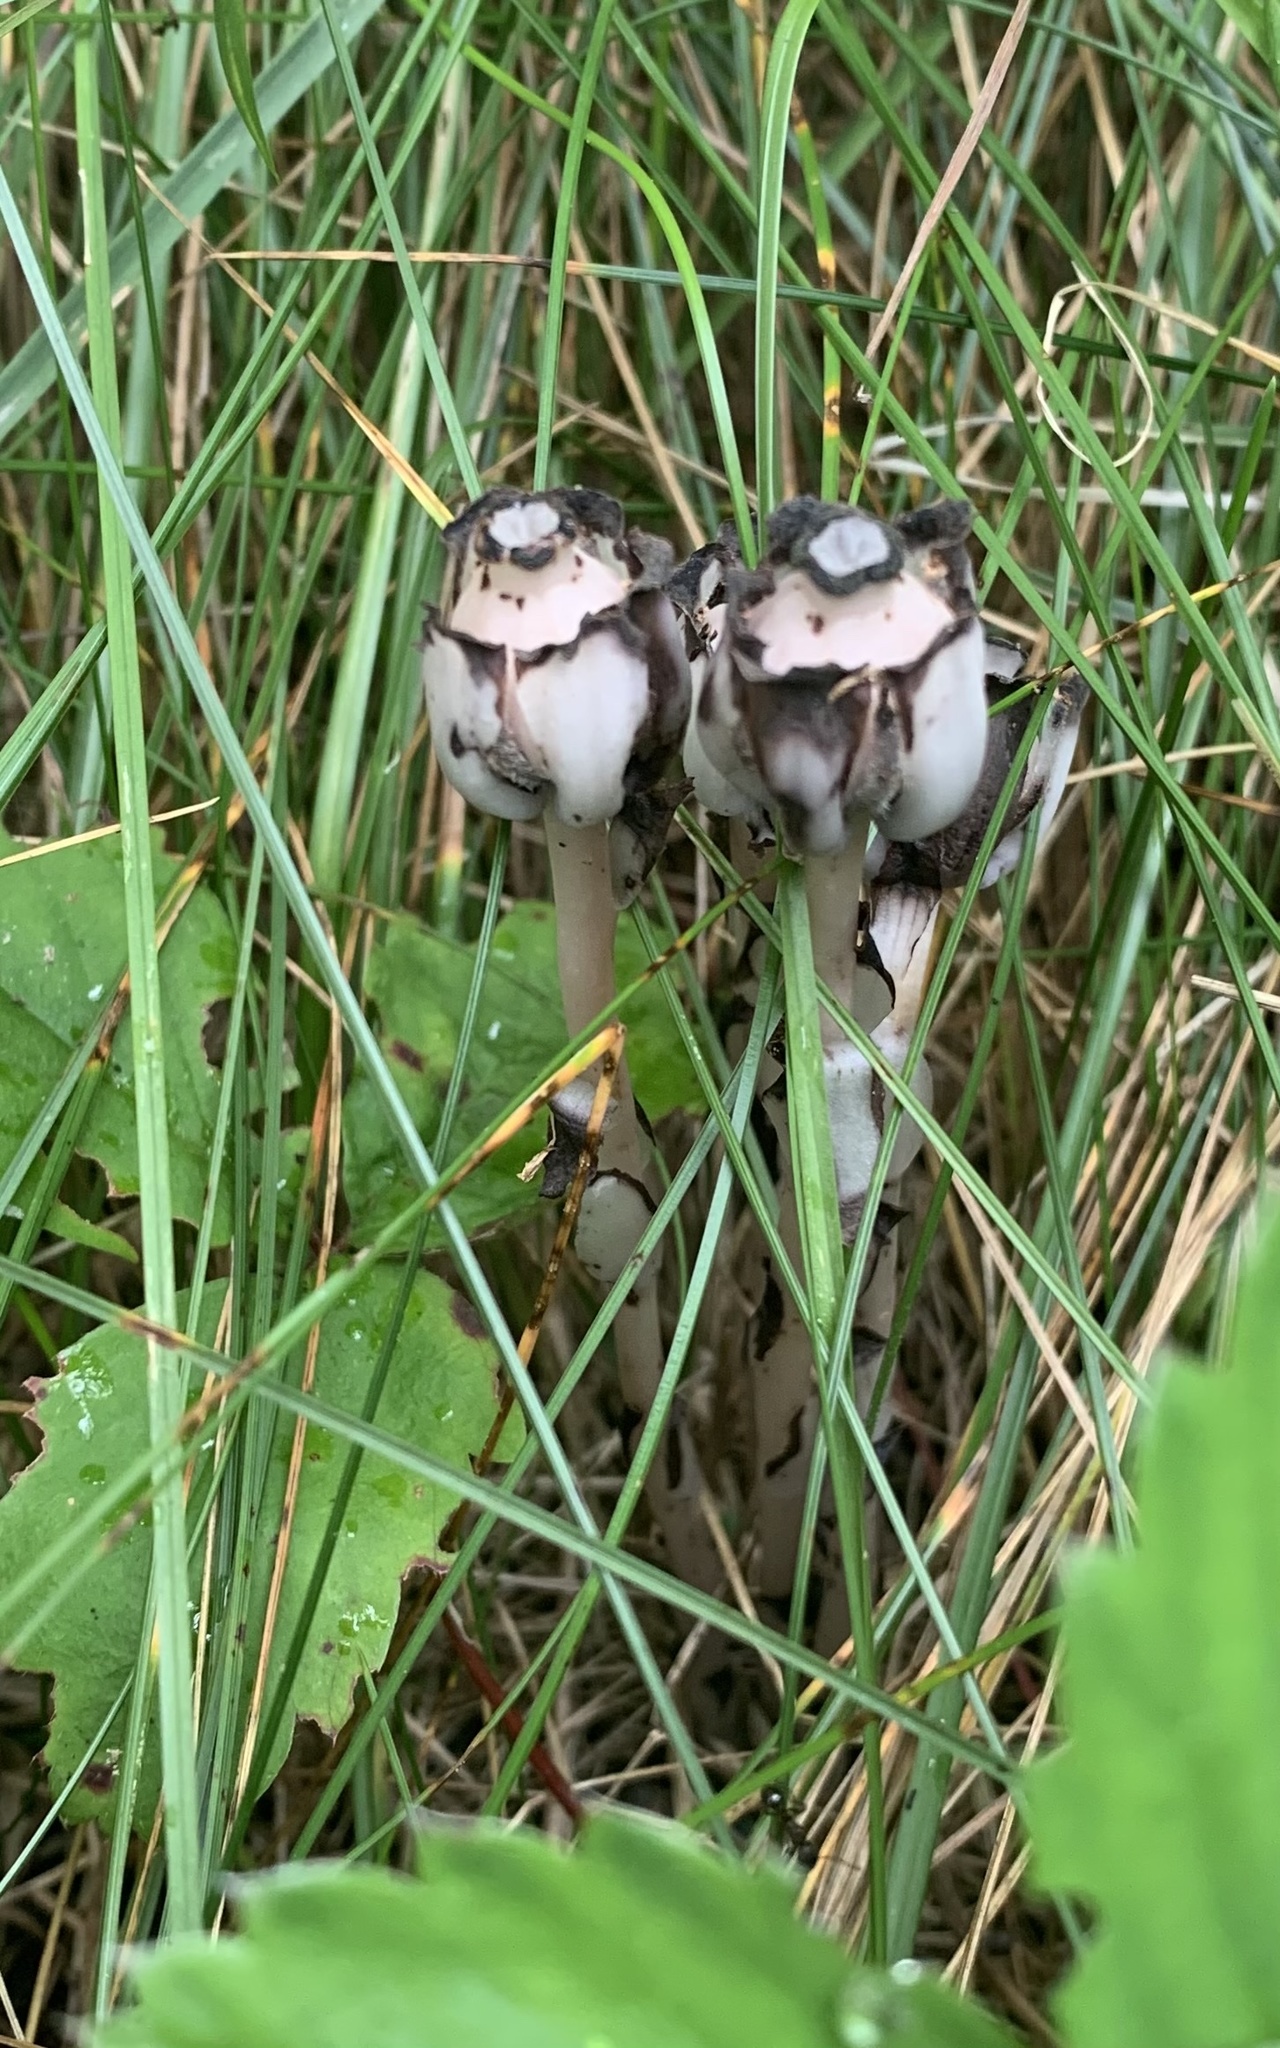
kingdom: Plantae
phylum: Tracheophyta
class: Magnoliopsida
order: Ericales
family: Ericaceae
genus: Monotropa
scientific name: Monotropa uniflora
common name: Convulsion root
